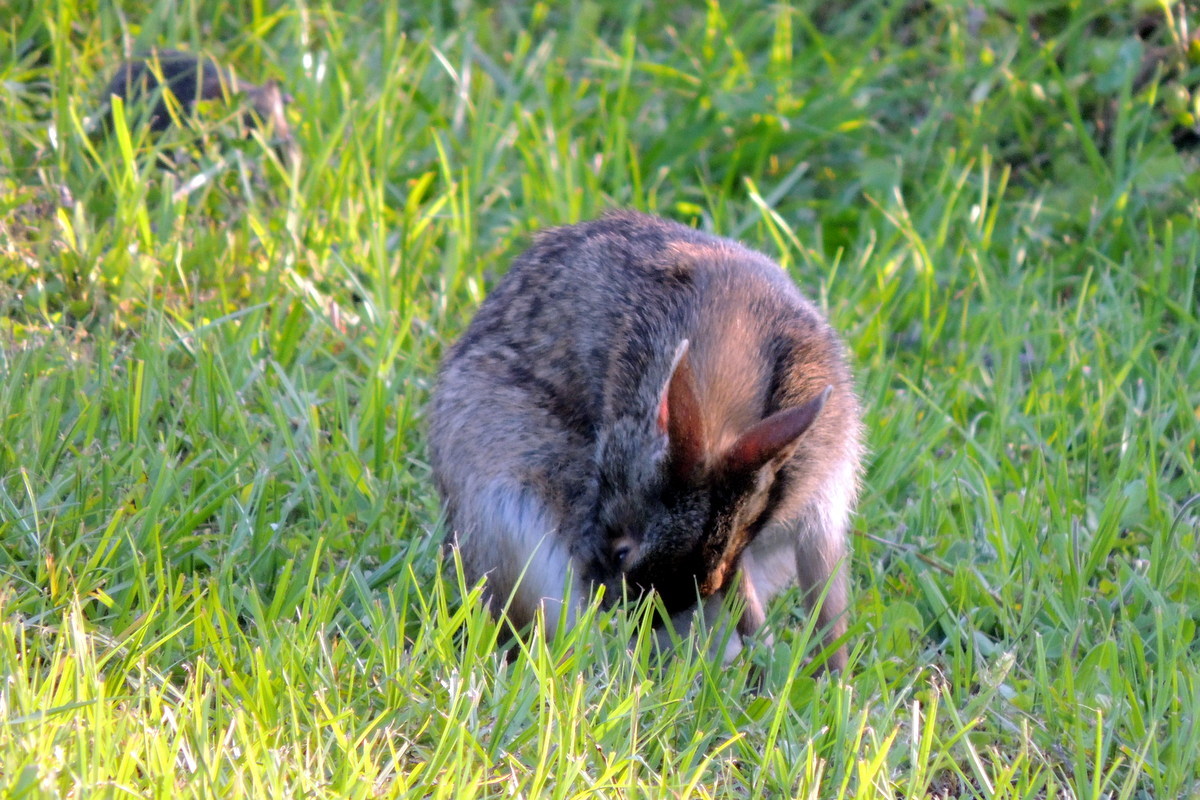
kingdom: Animalia
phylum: Chordata
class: Mammalia
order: Lagomorpha
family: Leporidae
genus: Sylvilagus
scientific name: Sylvilagus palustris
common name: Marsh rabbit
